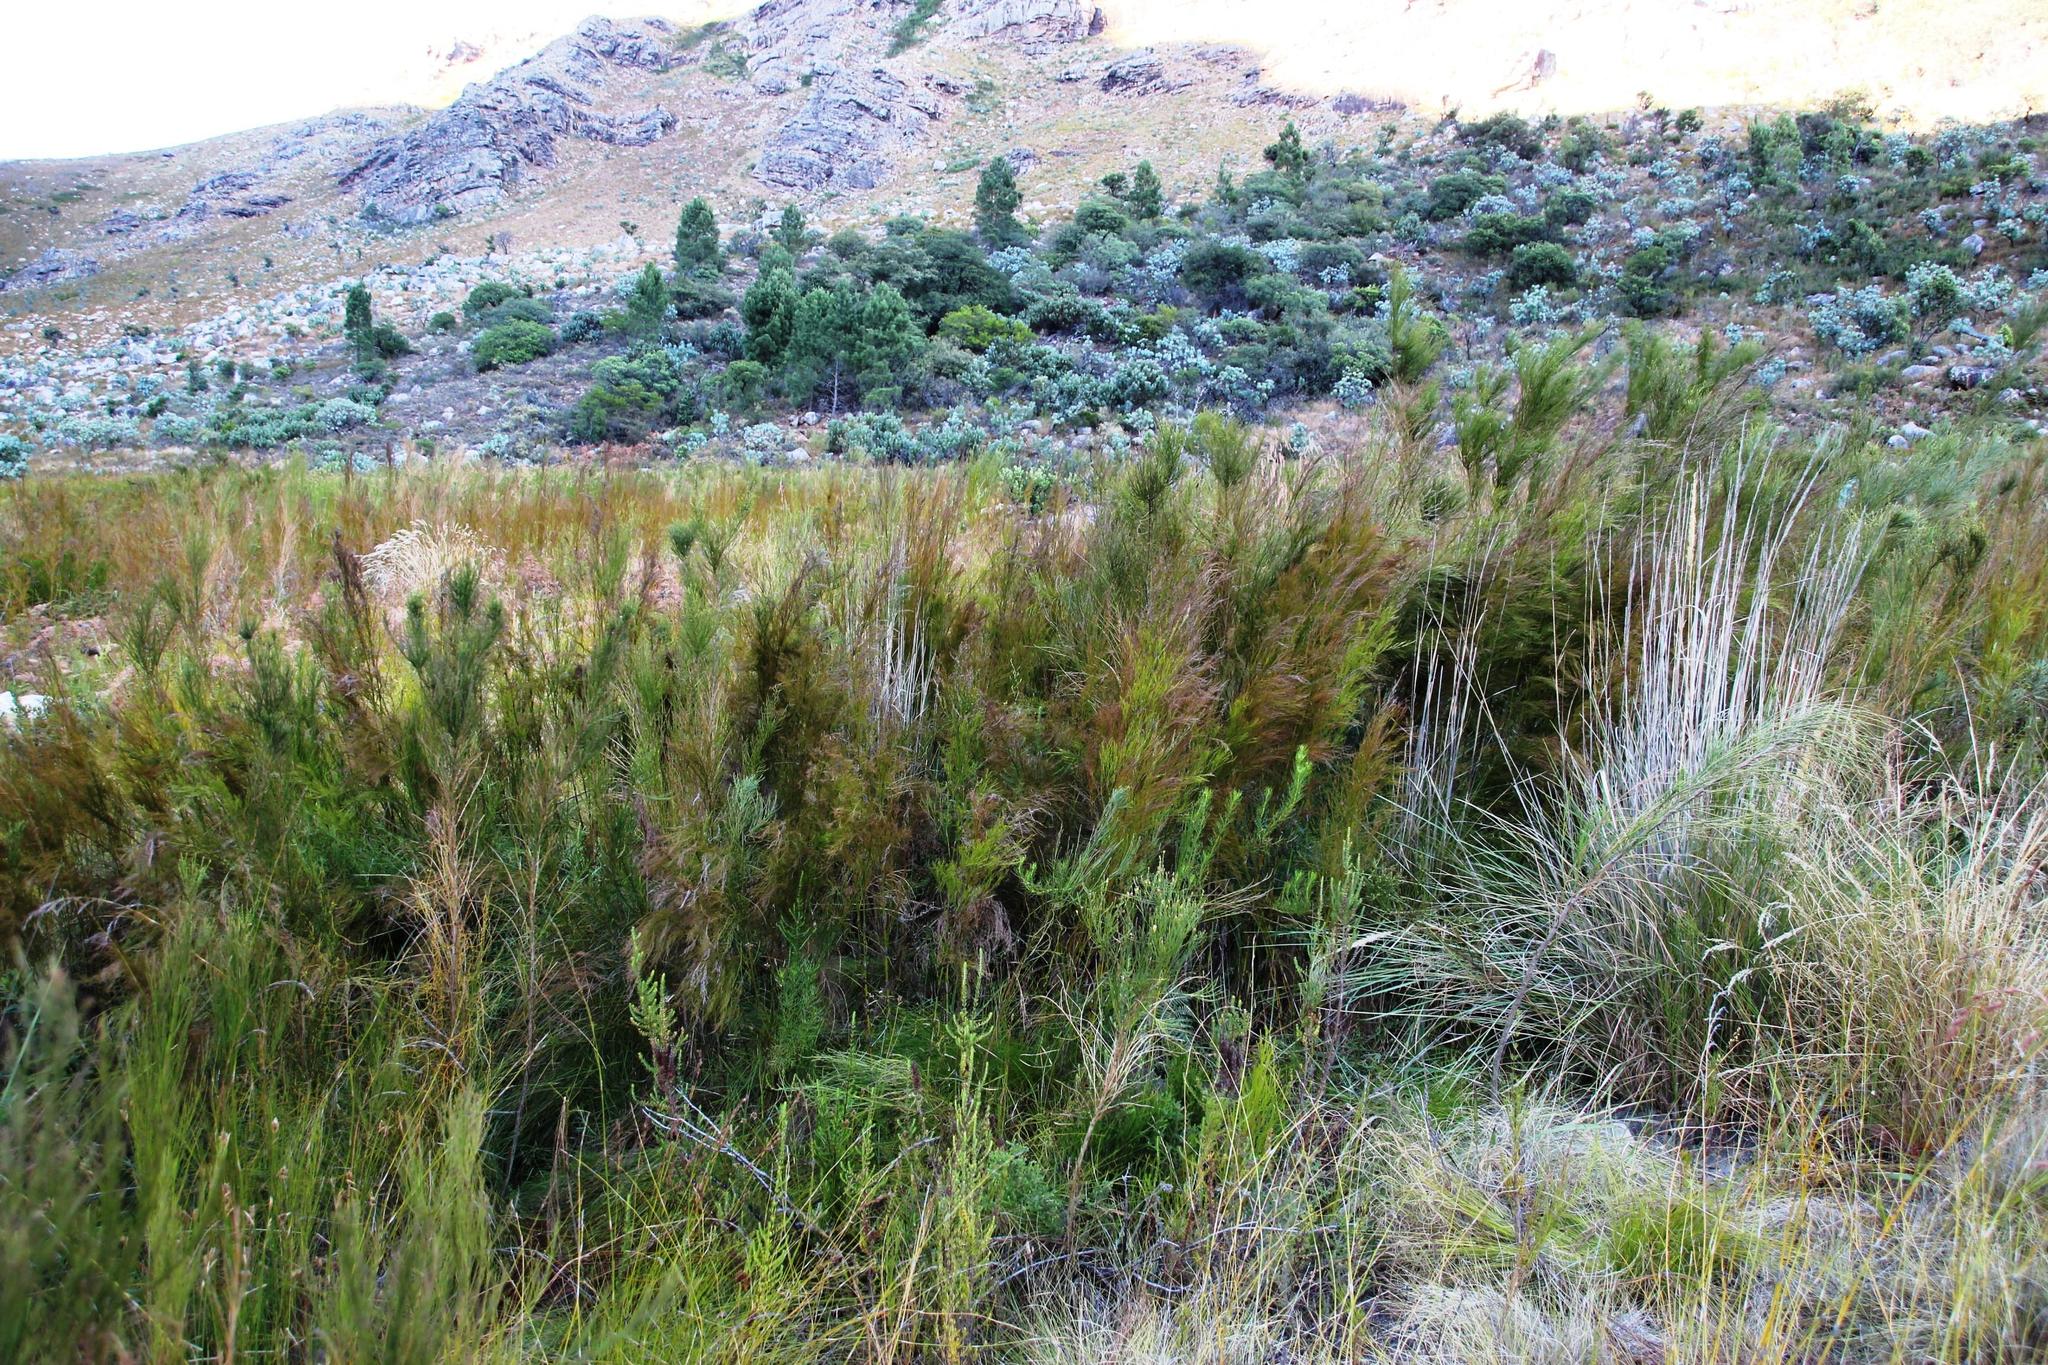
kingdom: Plantae
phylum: Tracheophyta
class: Liliopsida
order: Poales
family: Restionaceae
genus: Restio
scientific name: Restio paniculatus
